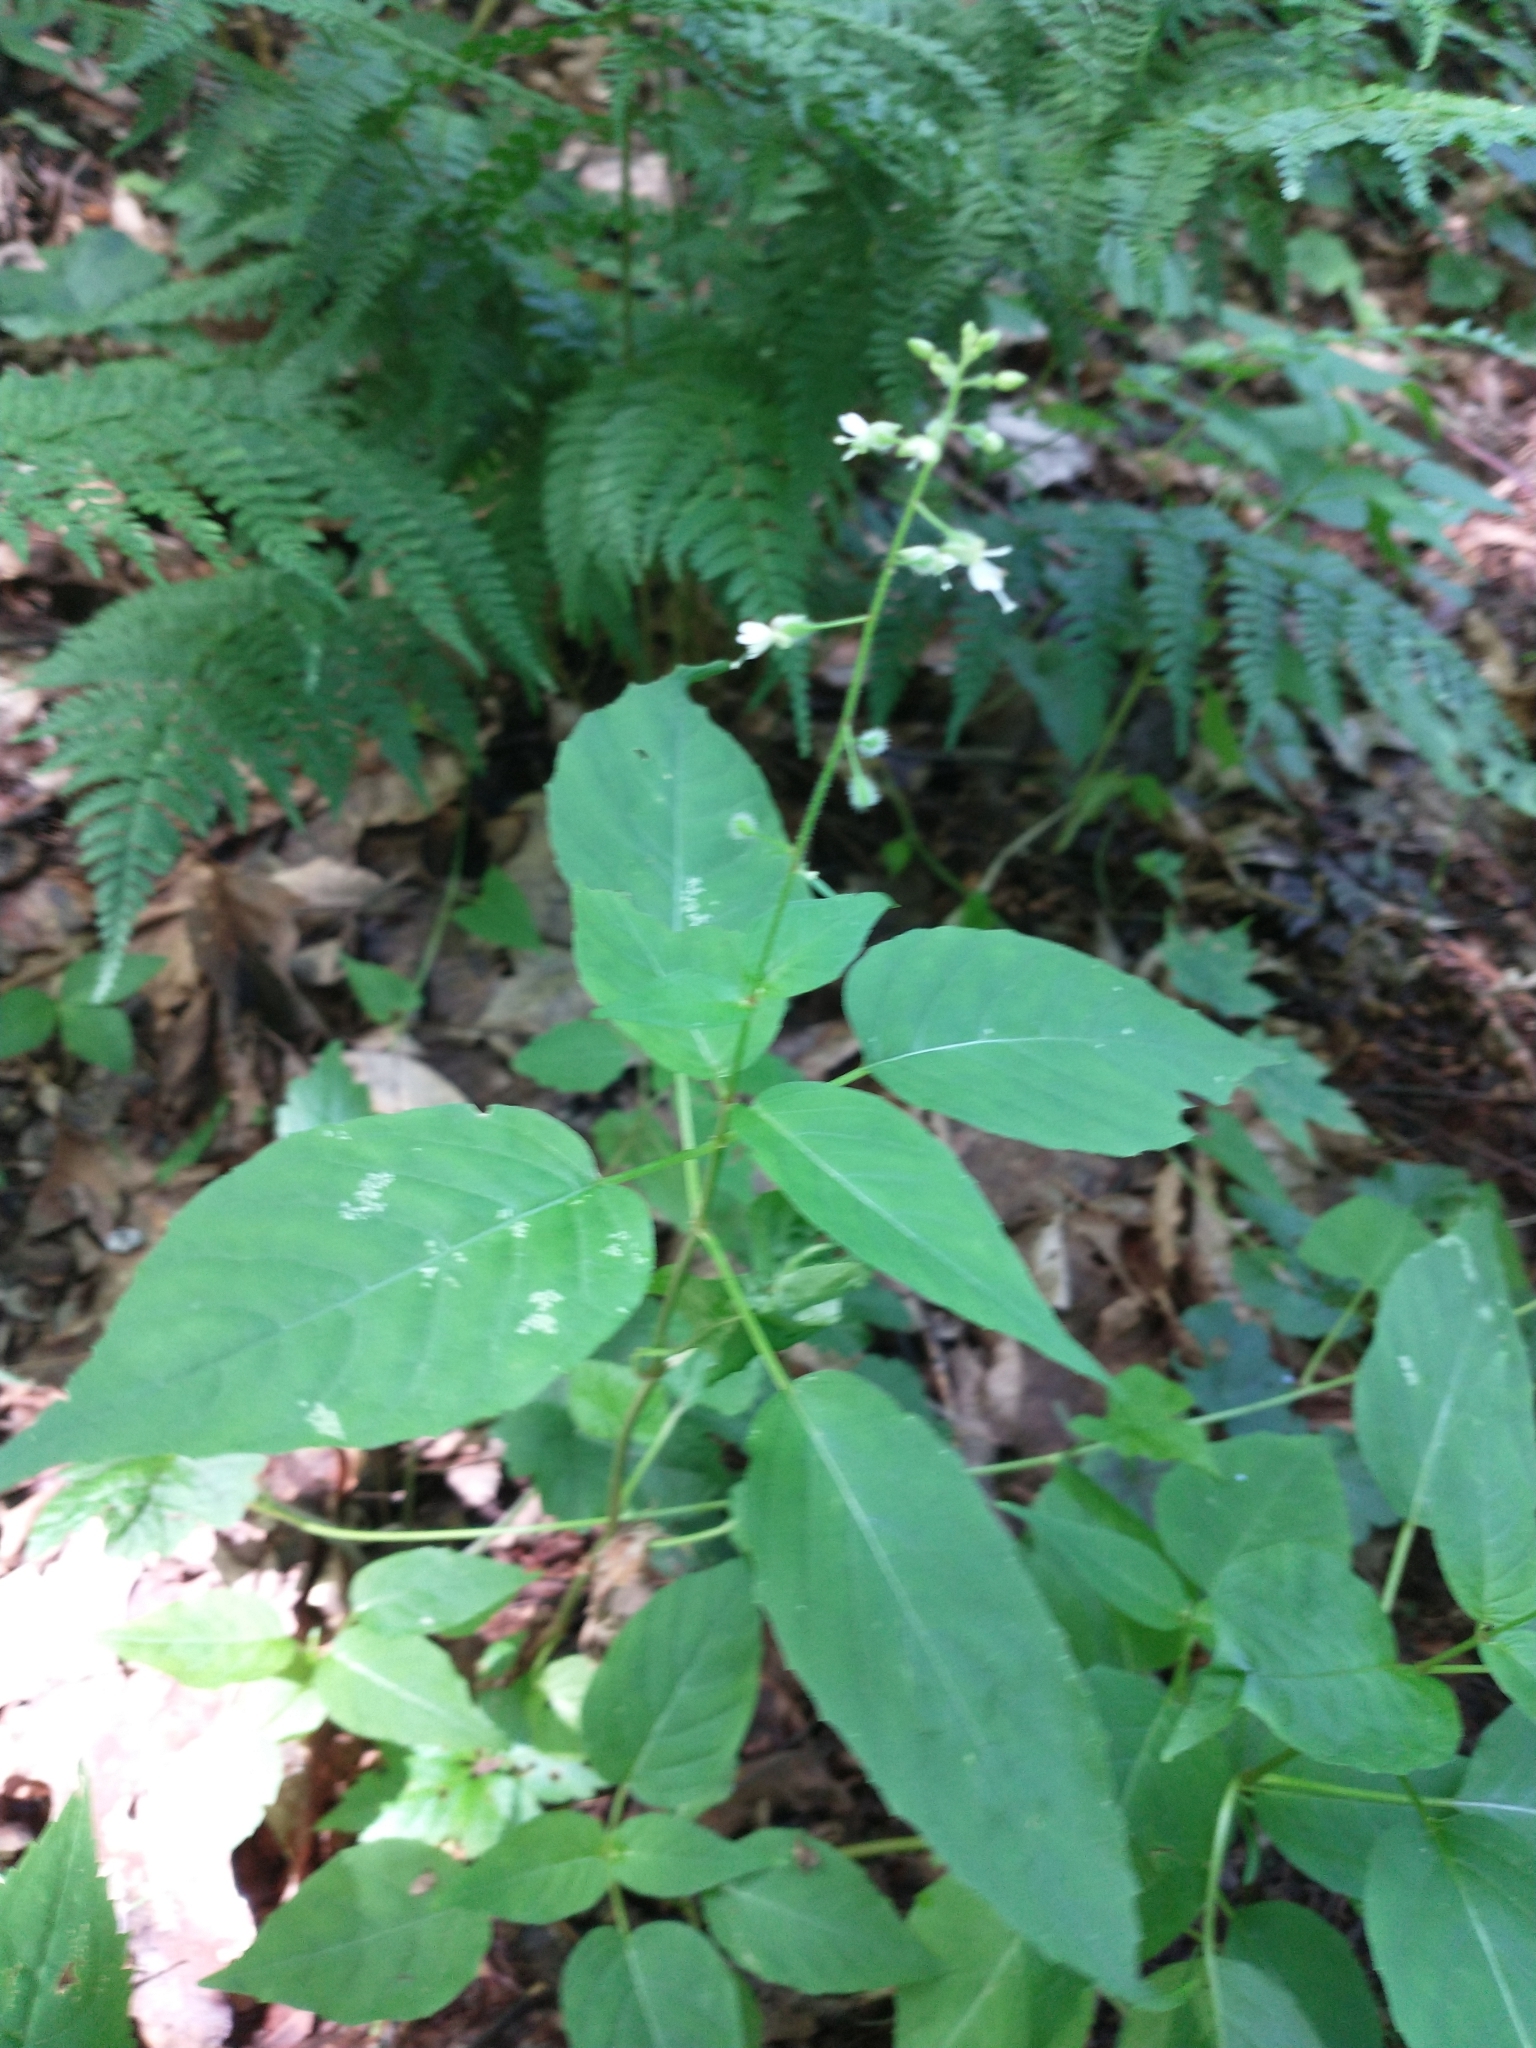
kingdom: Plantae
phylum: Tracheophyta
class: Magnoliopsida
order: Myrtales
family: Onagraceae
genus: Circaea
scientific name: Circaea canadensis
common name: Broad-leaved enchanter's nightshade
